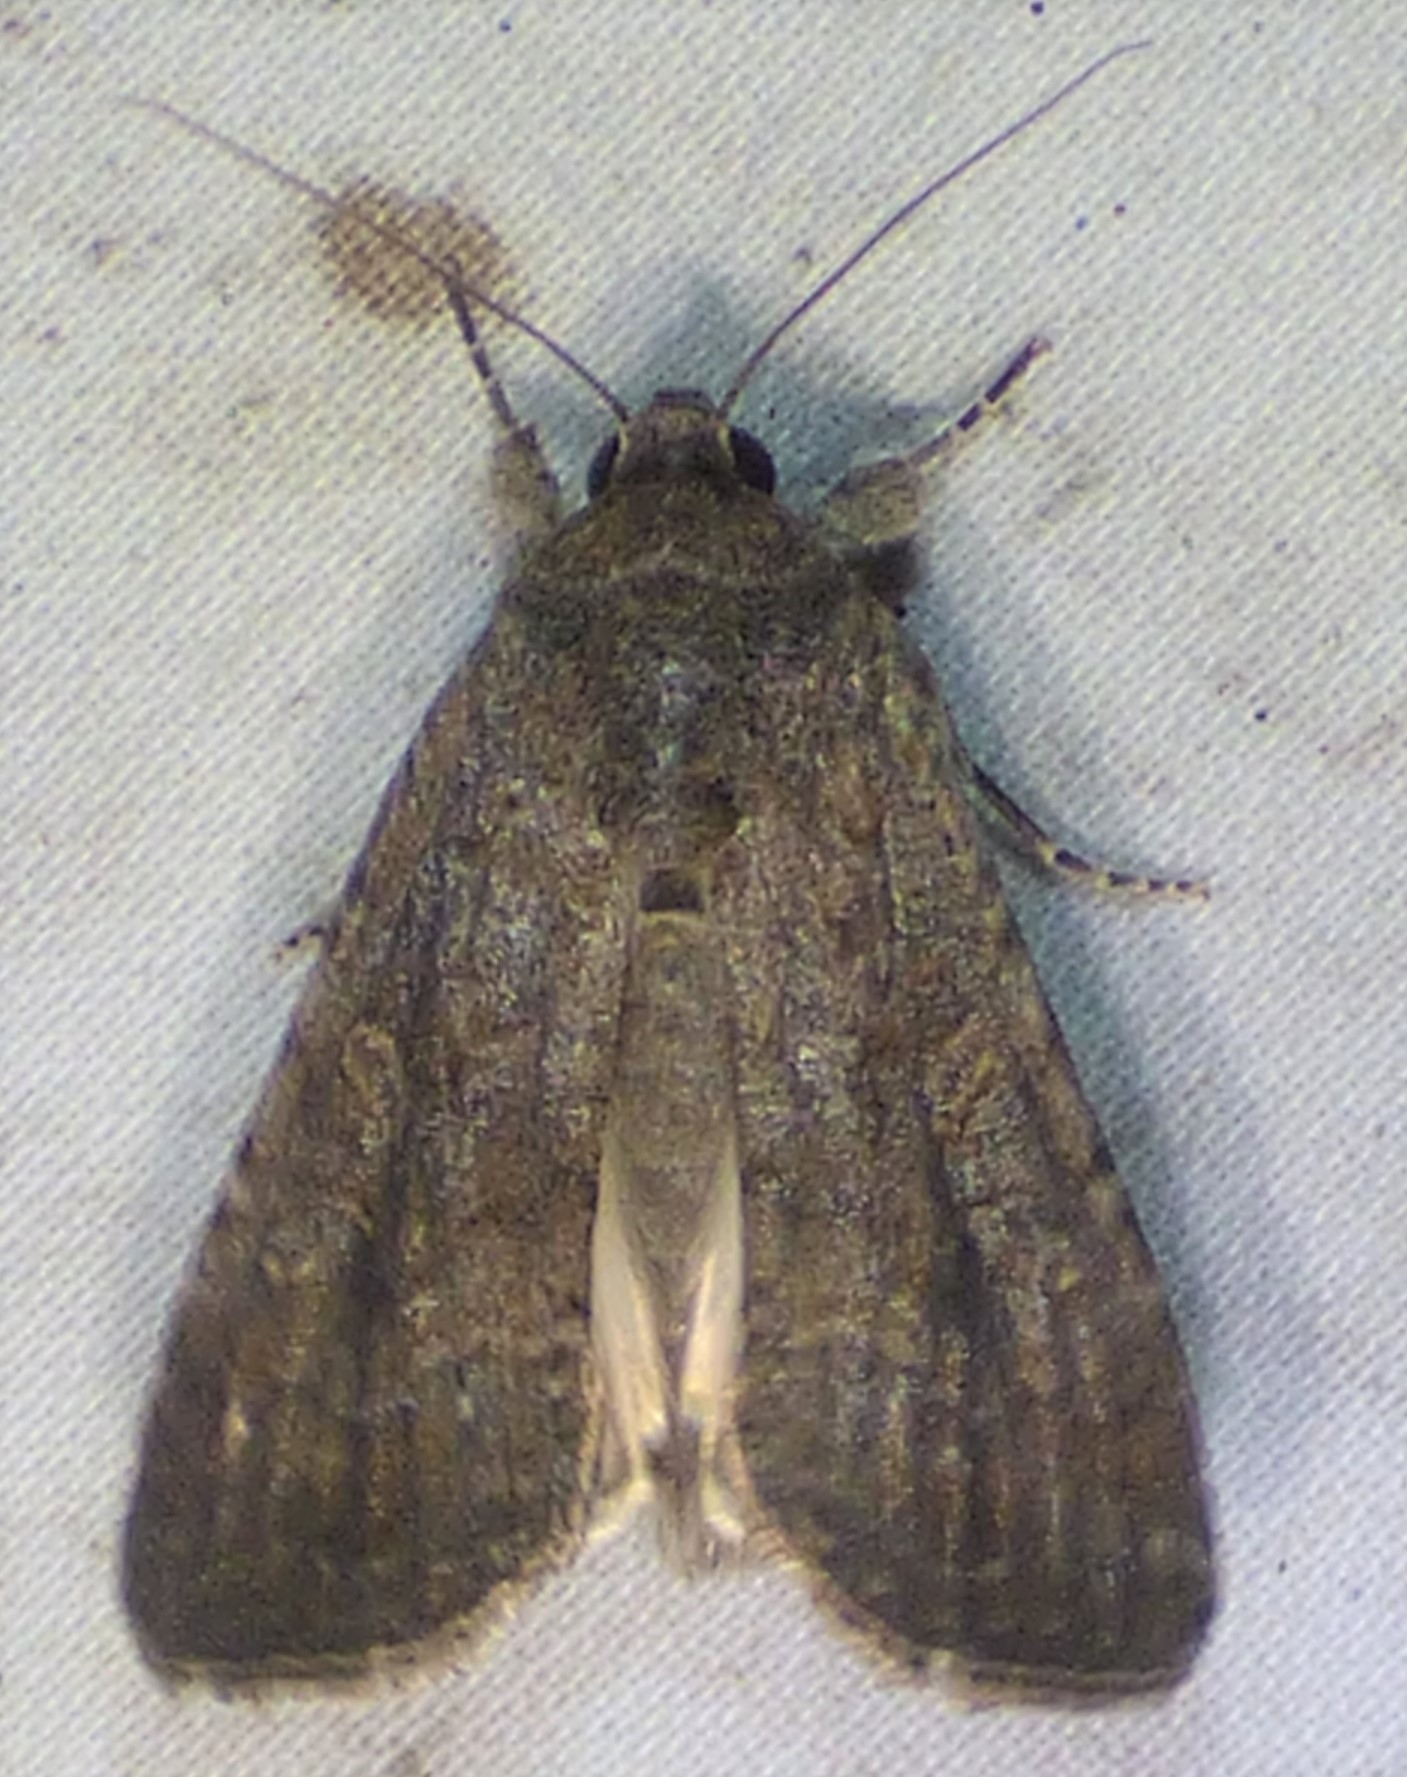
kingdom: Animalia
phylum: Arthropoda
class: Insecta
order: Lepidoptera
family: Noctuidae
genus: Spodoptera
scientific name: Spodoptera frugiperda
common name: Fall armyworm
